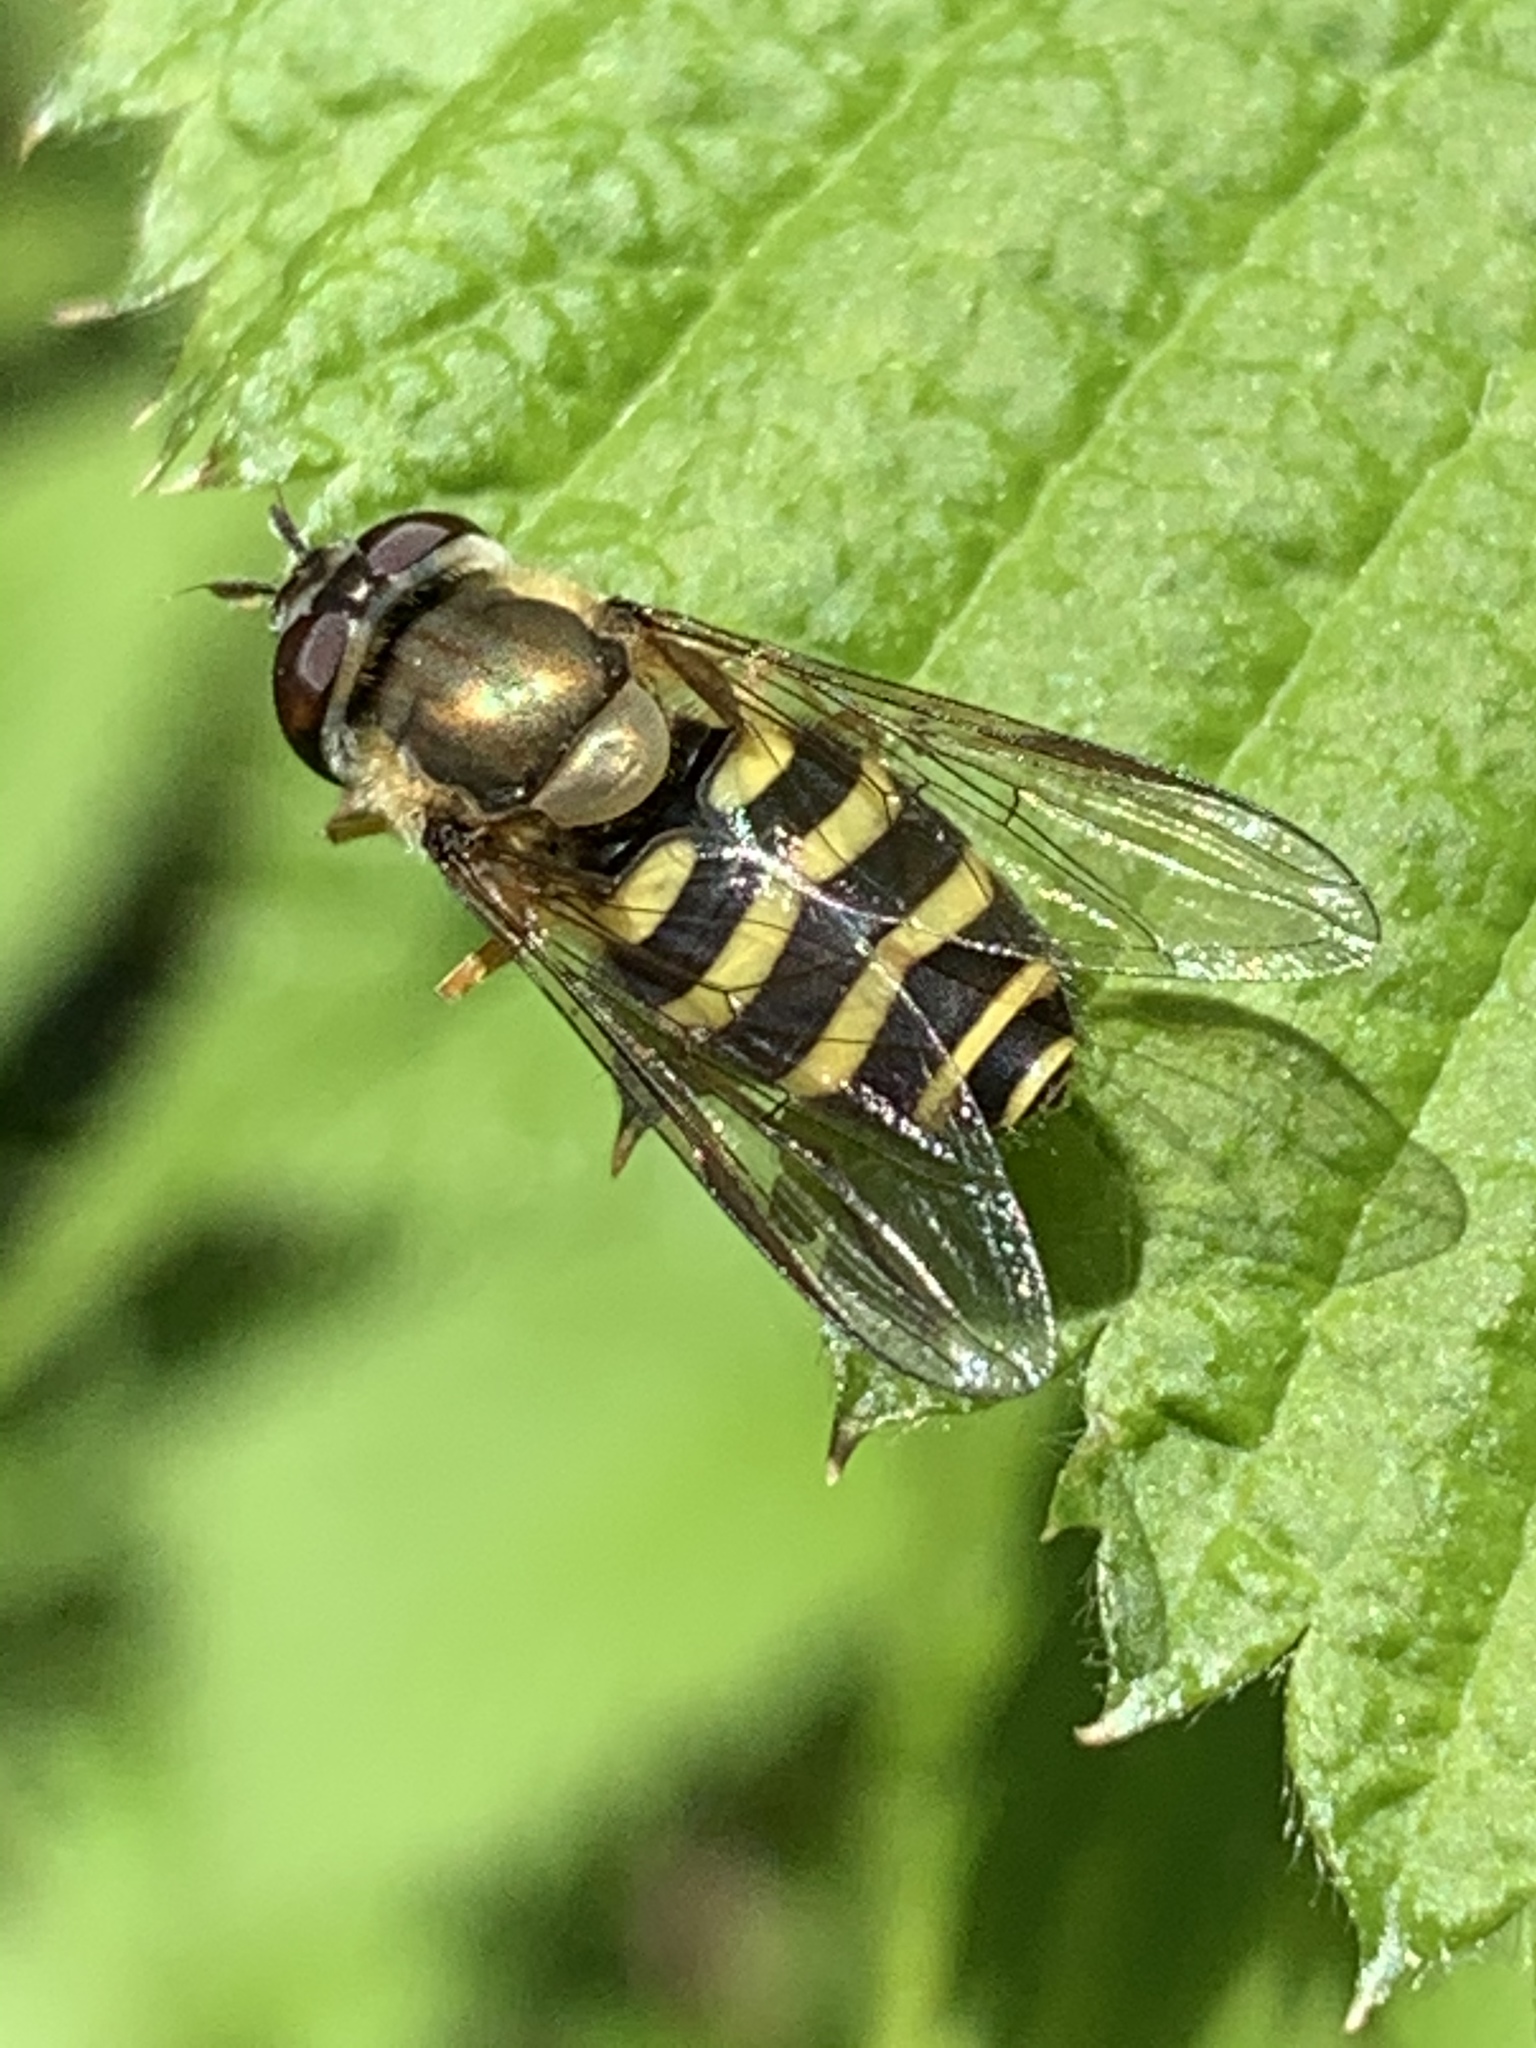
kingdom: Animalia
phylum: Arthropoda
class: Insecta
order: Diptera
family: Syrphidae
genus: Syrphus
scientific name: Syrphus
